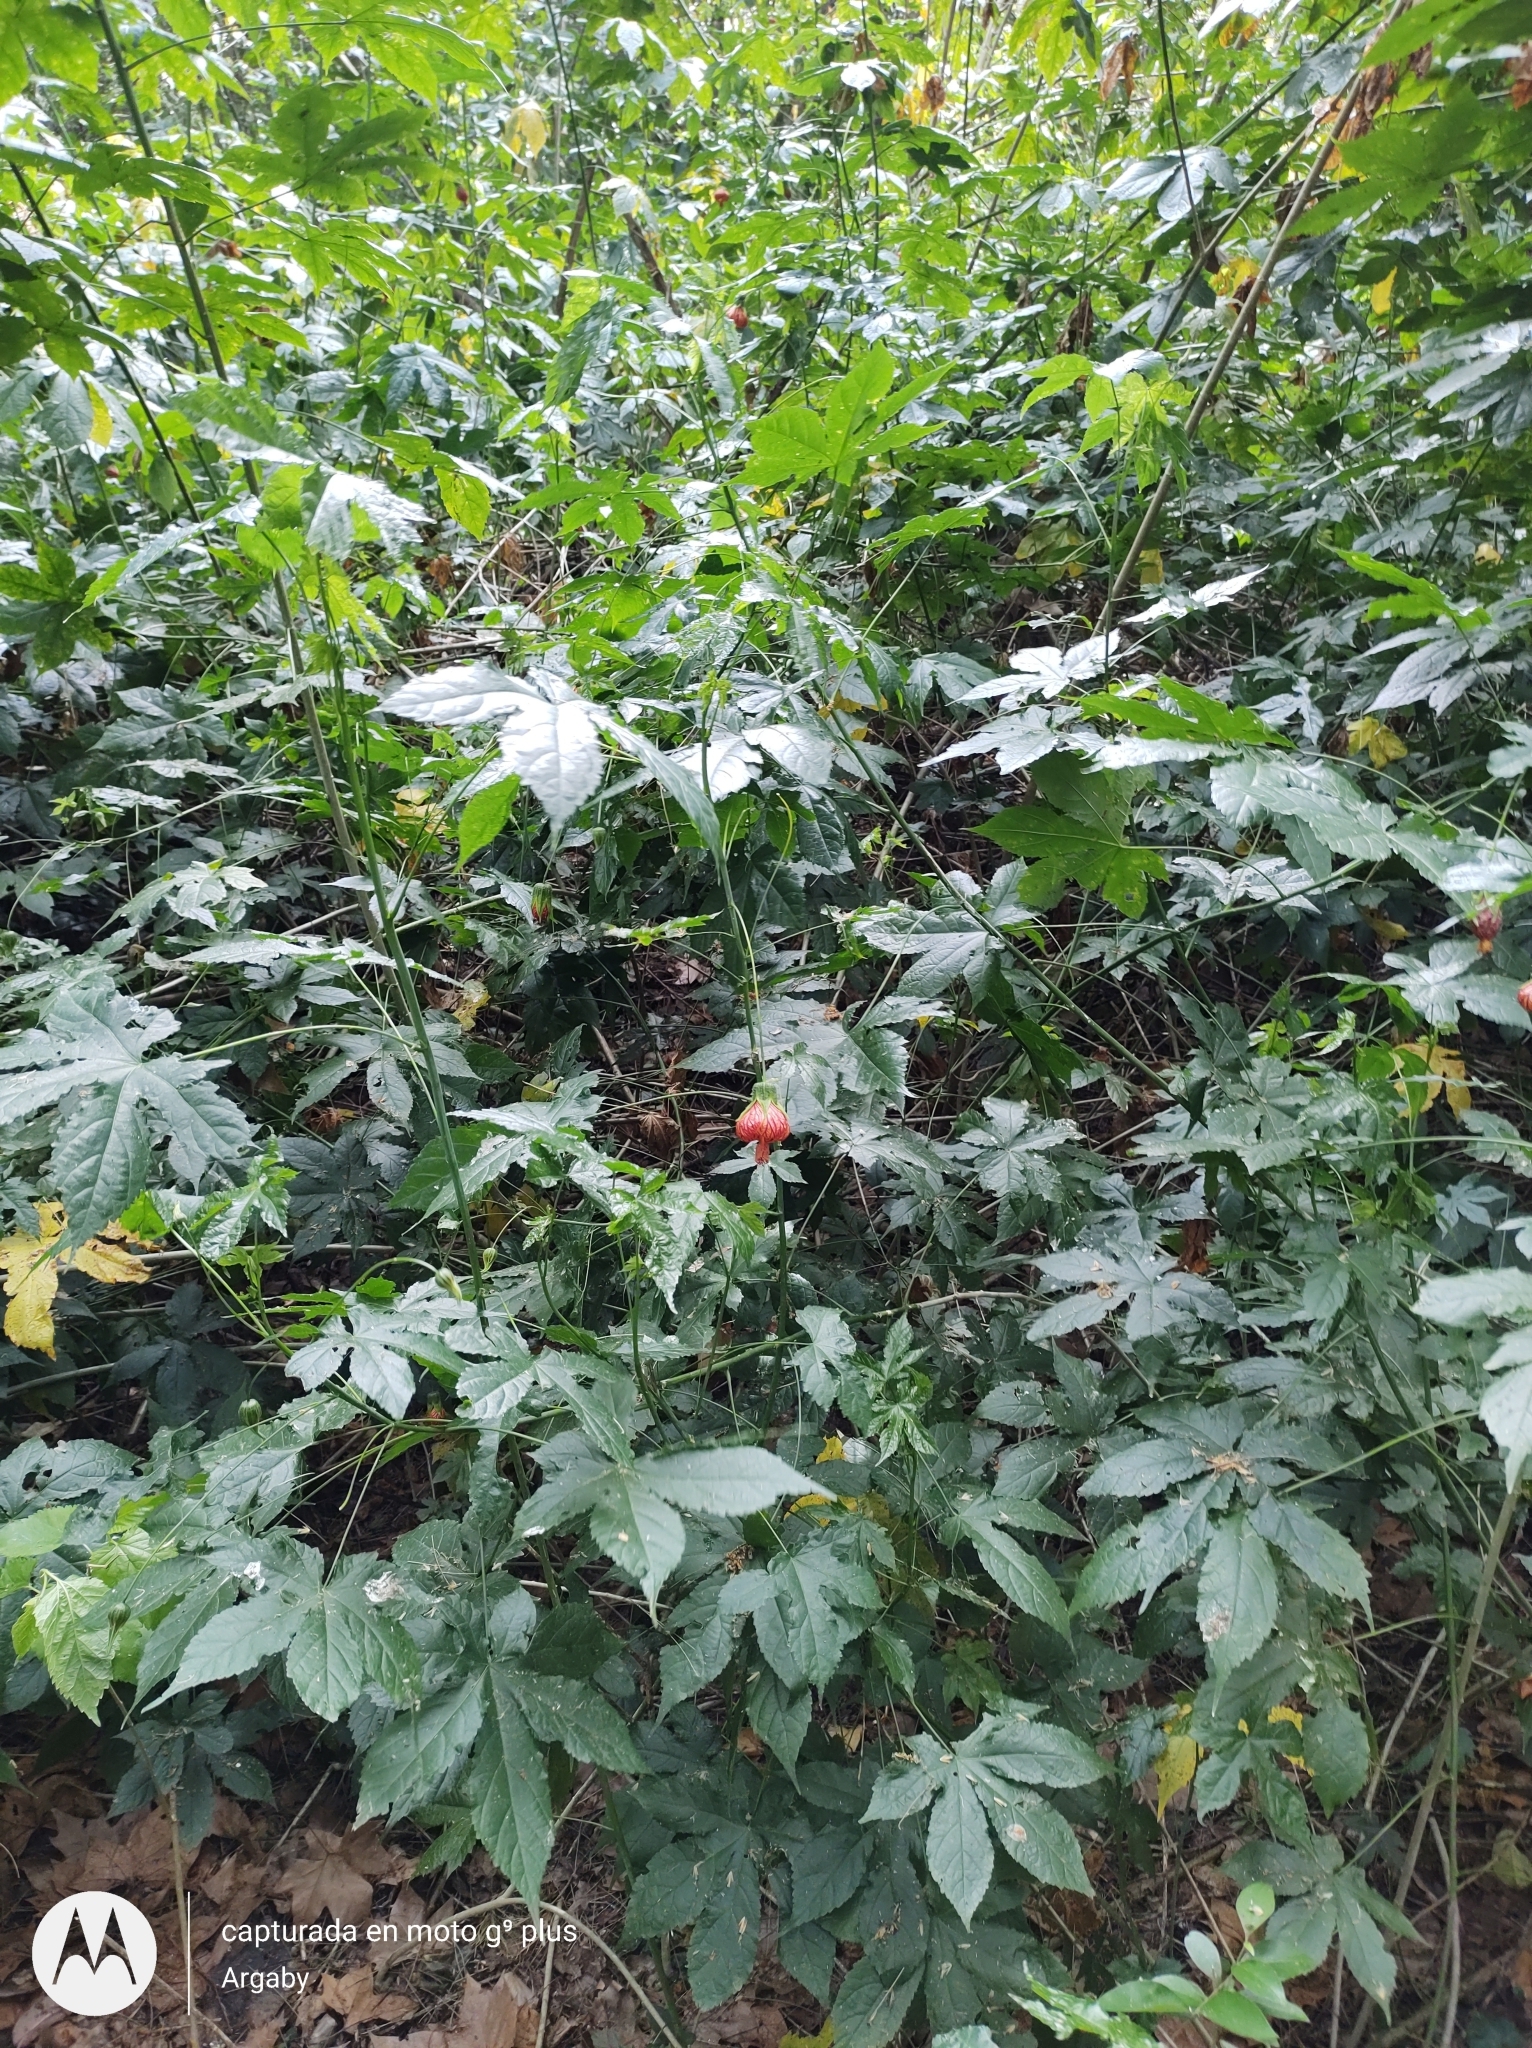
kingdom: Plantae
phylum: Tracheophyta
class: Magnoliopsida
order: Malvales
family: Malvaceae
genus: Callianthe
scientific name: Callianthe picta
